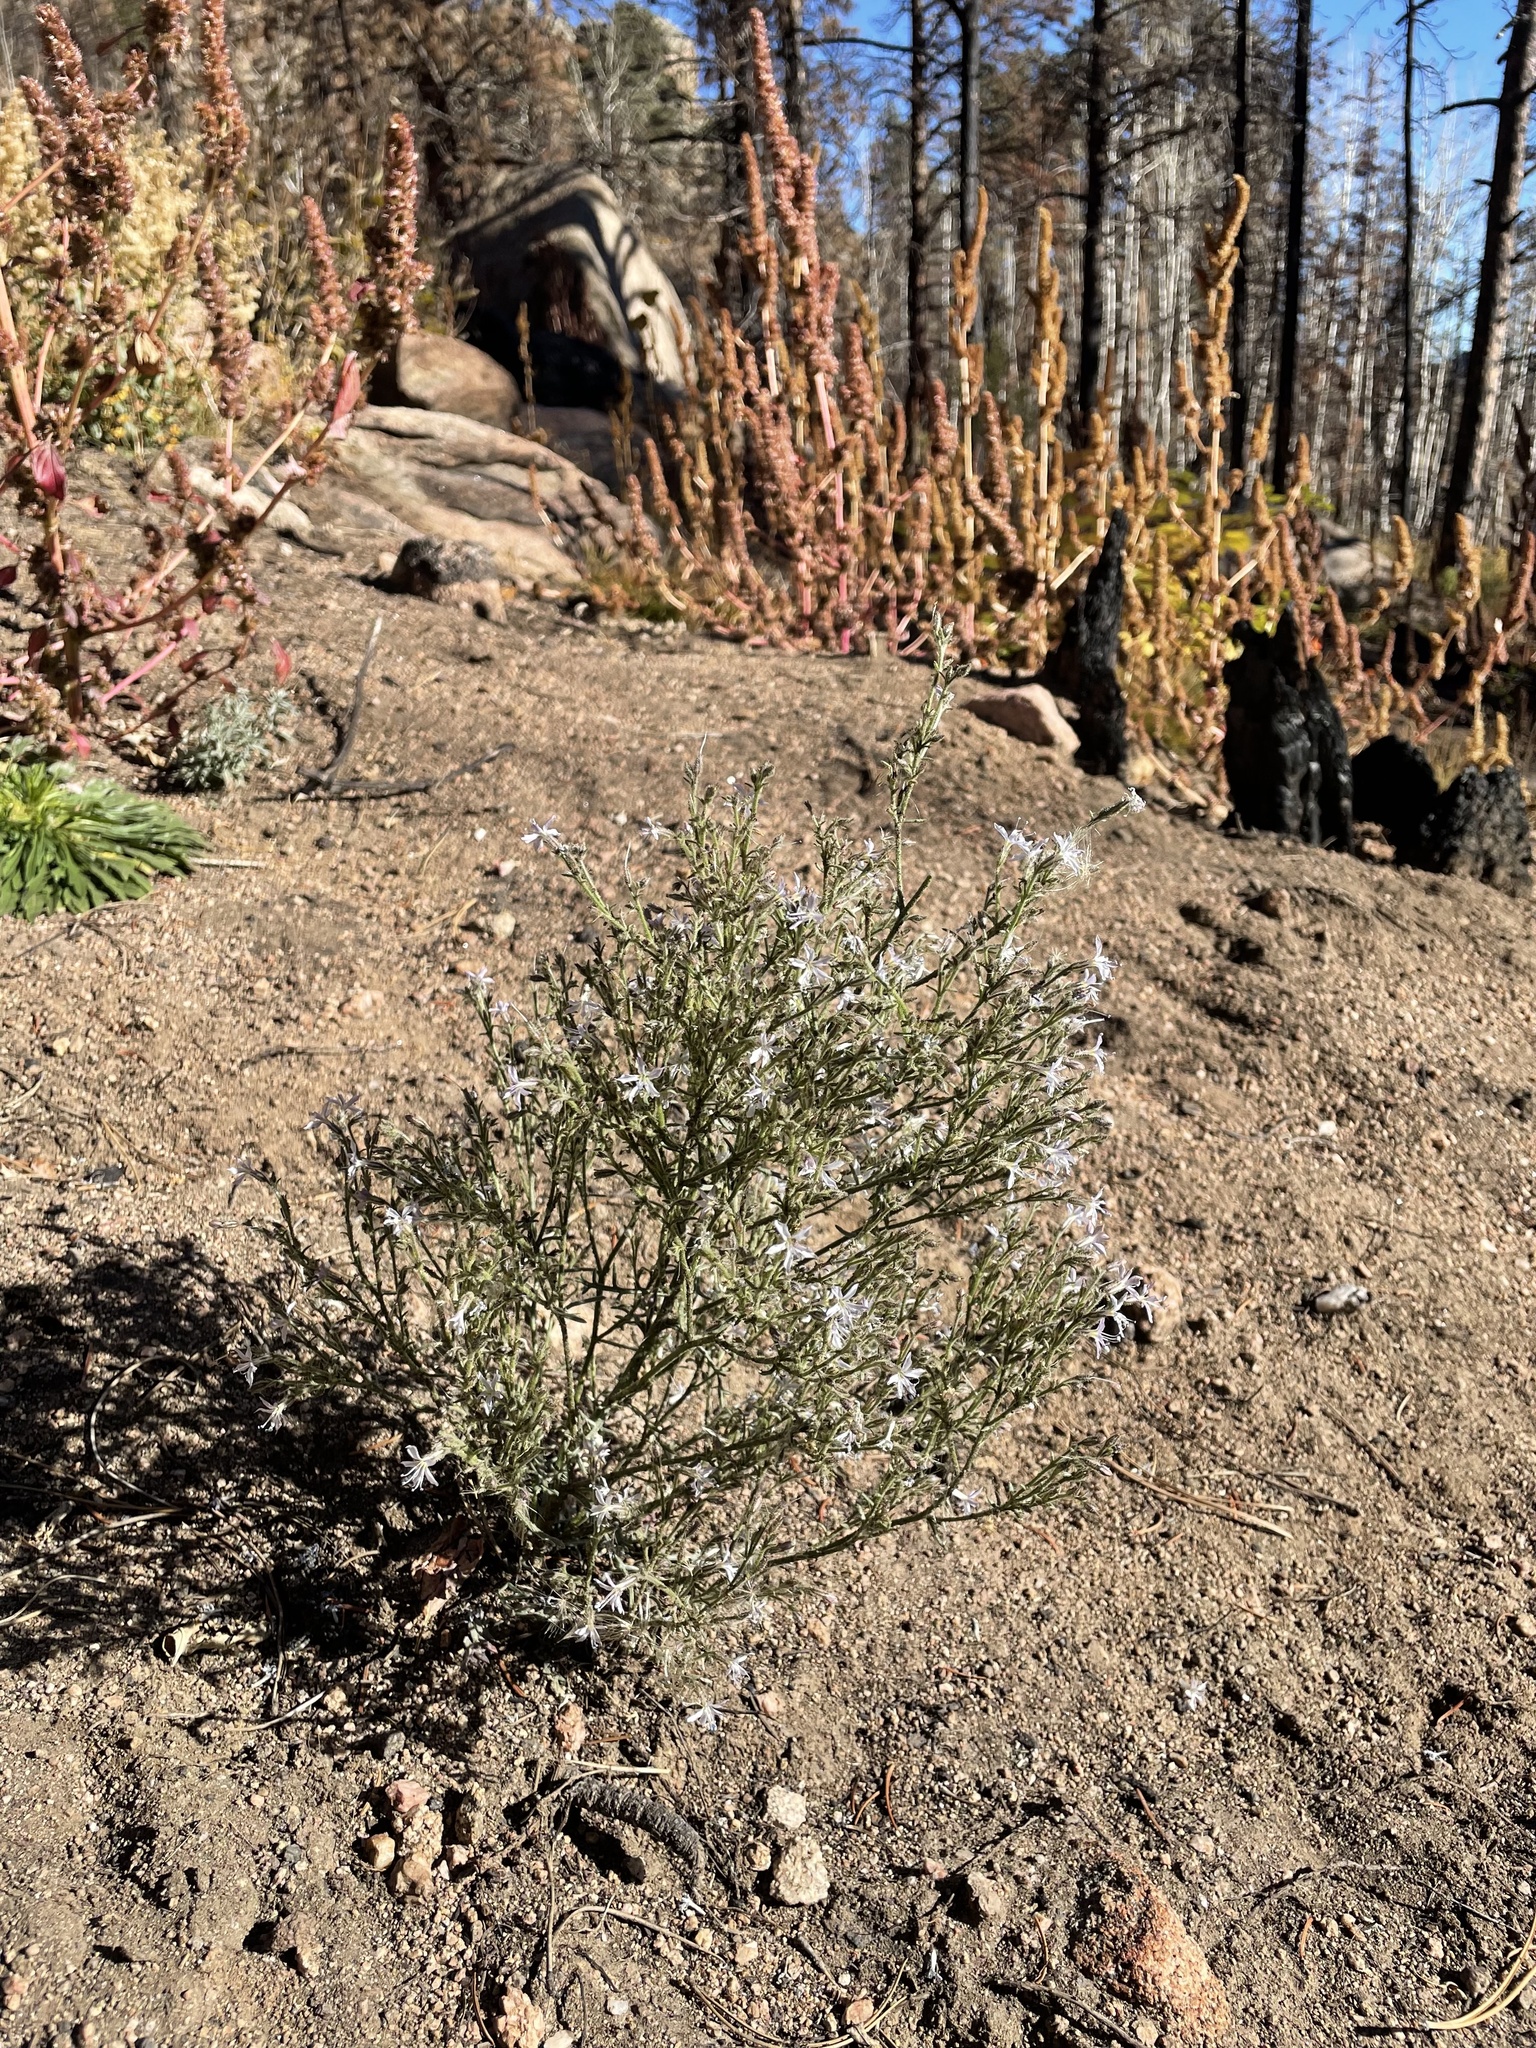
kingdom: Plantae
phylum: Tracheophyta
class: Magnoliopsida
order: Ericales
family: Polemoniaceae
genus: Aliciella
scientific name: Aliciella pinnatifida
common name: Sticky gilia
